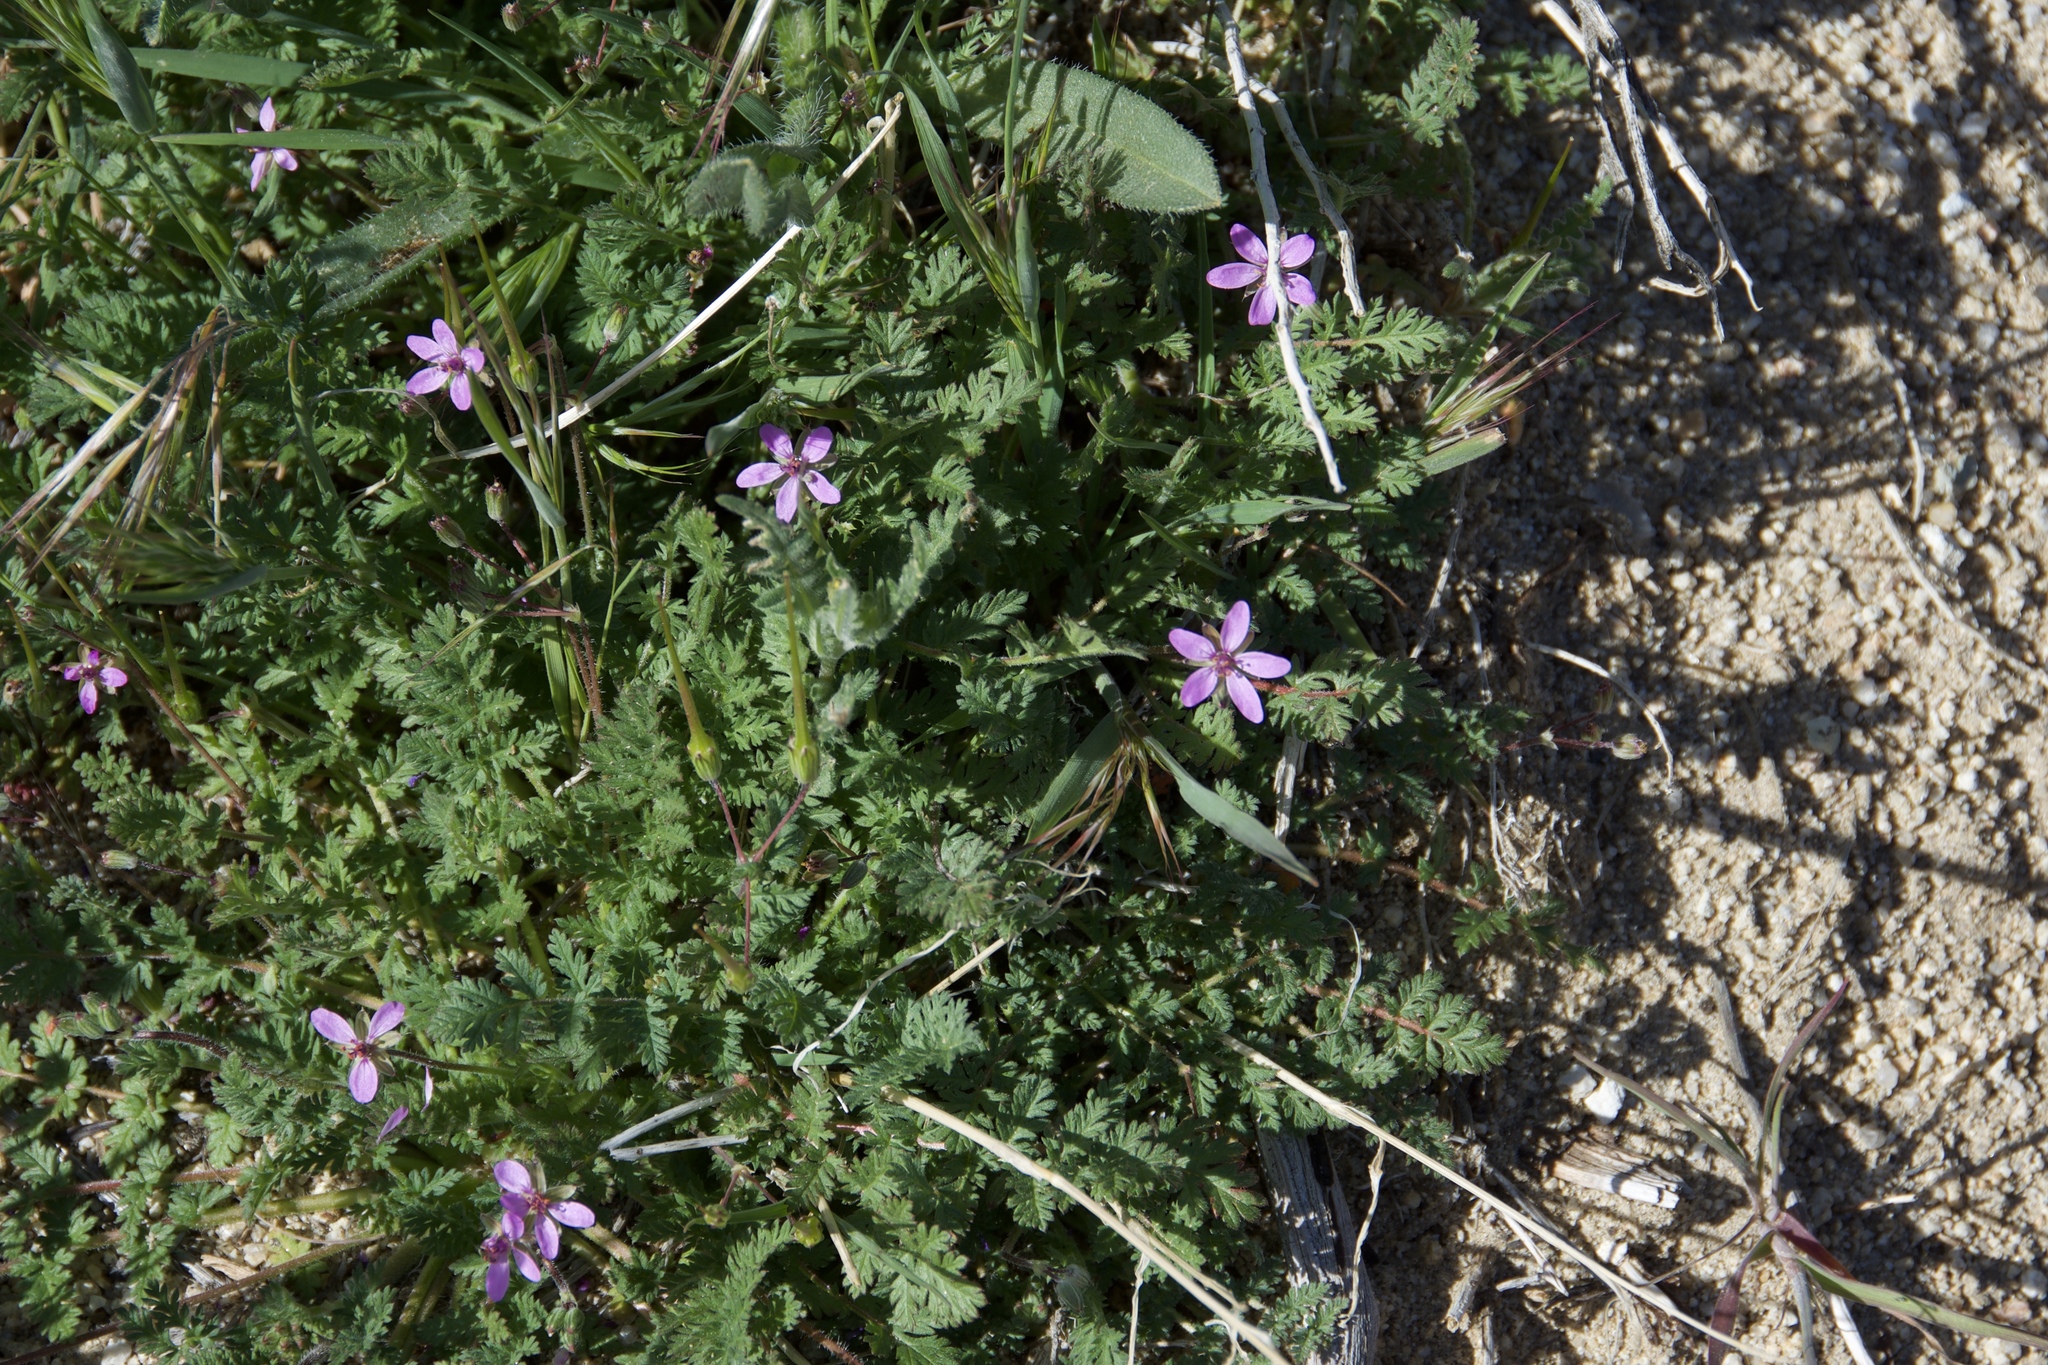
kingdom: Plantae
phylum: Tracheophyta
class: Magnoliopsida
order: Geraniales
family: Geraniaceae
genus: Erodium
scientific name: Erodium cicutarium
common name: Common stork's-bill
